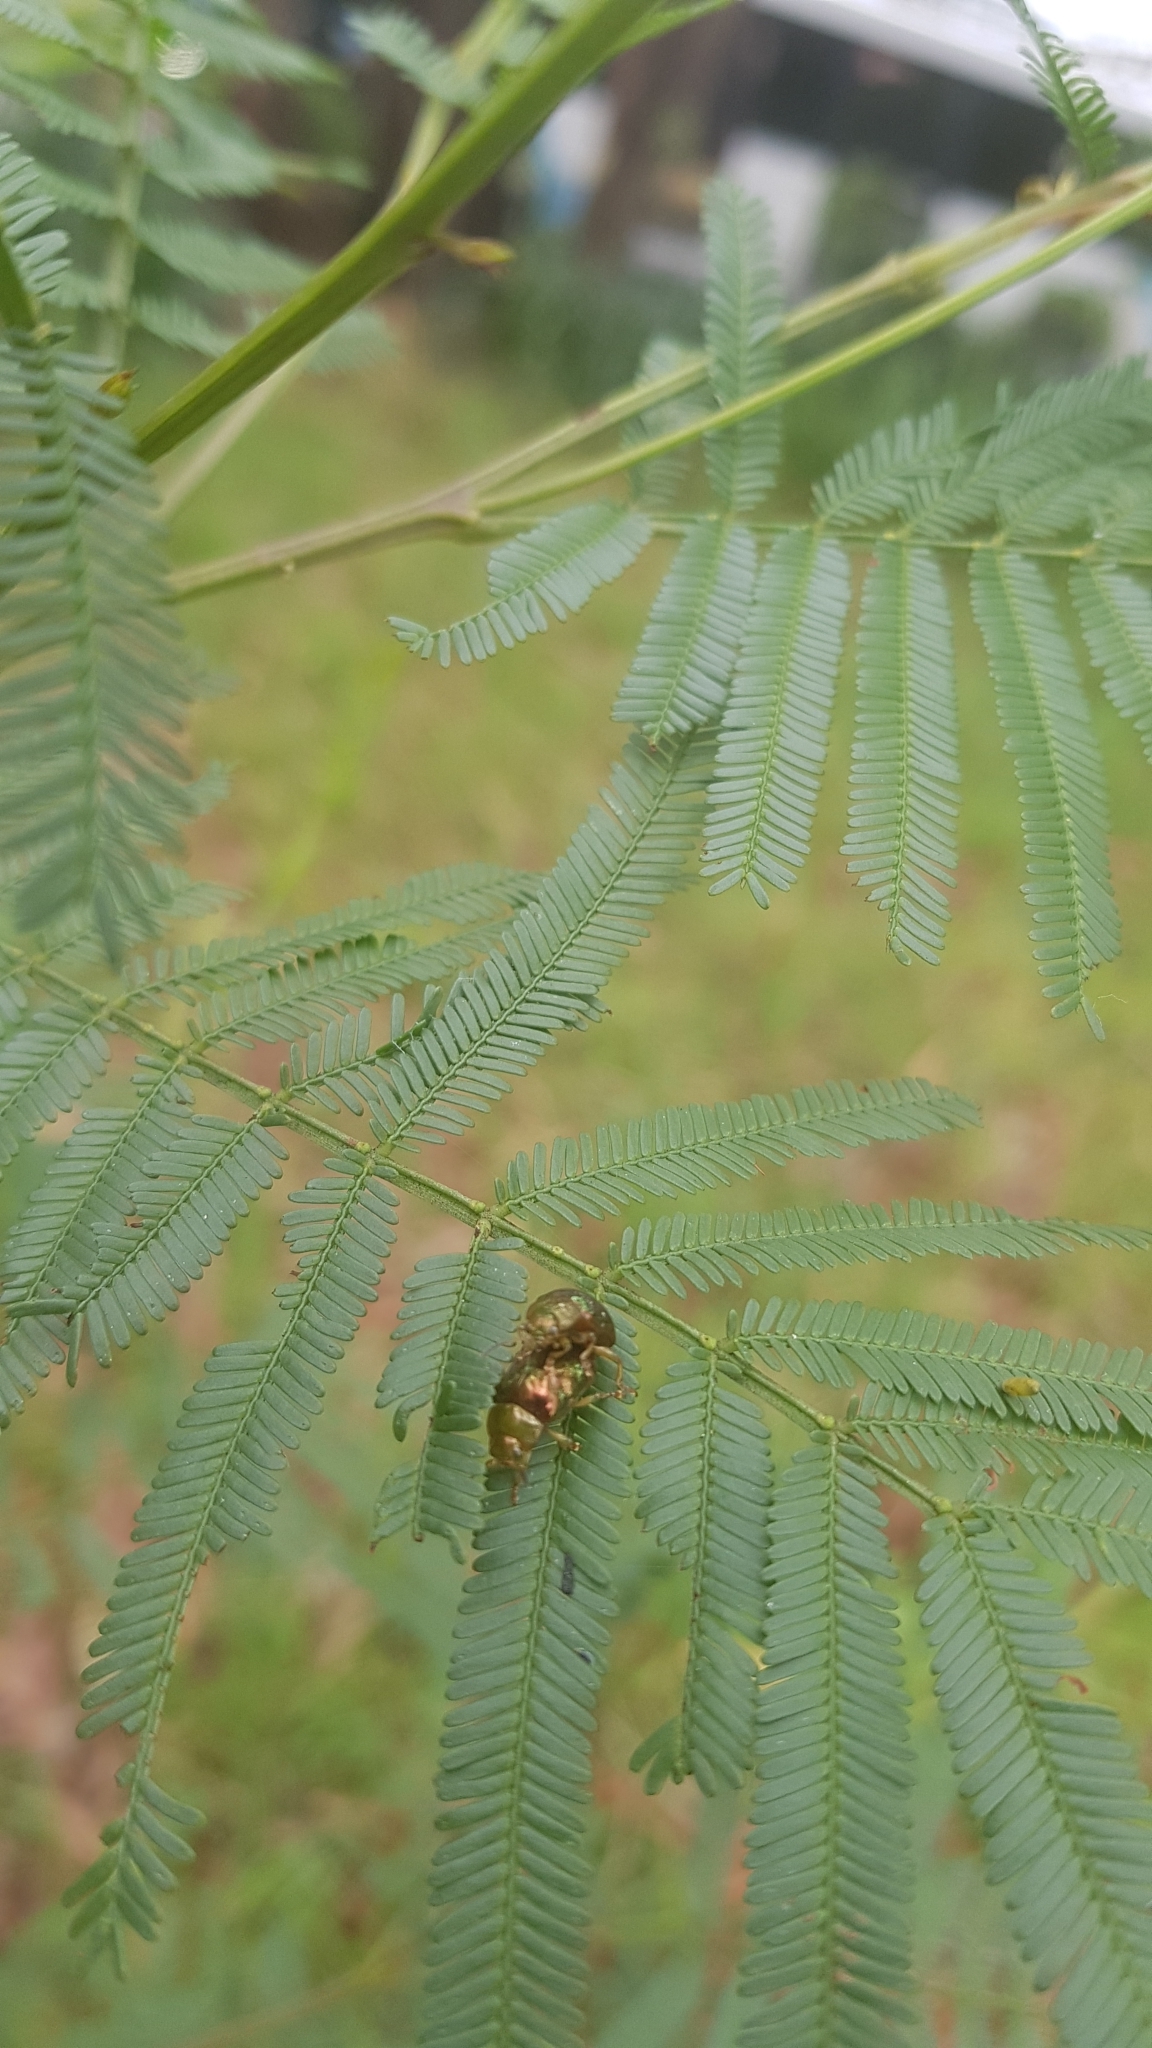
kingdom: Animalia
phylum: Arthropoda
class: Insecta
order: Coleoptera
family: Chrysomelidae
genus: Calomela
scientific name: Calomela
